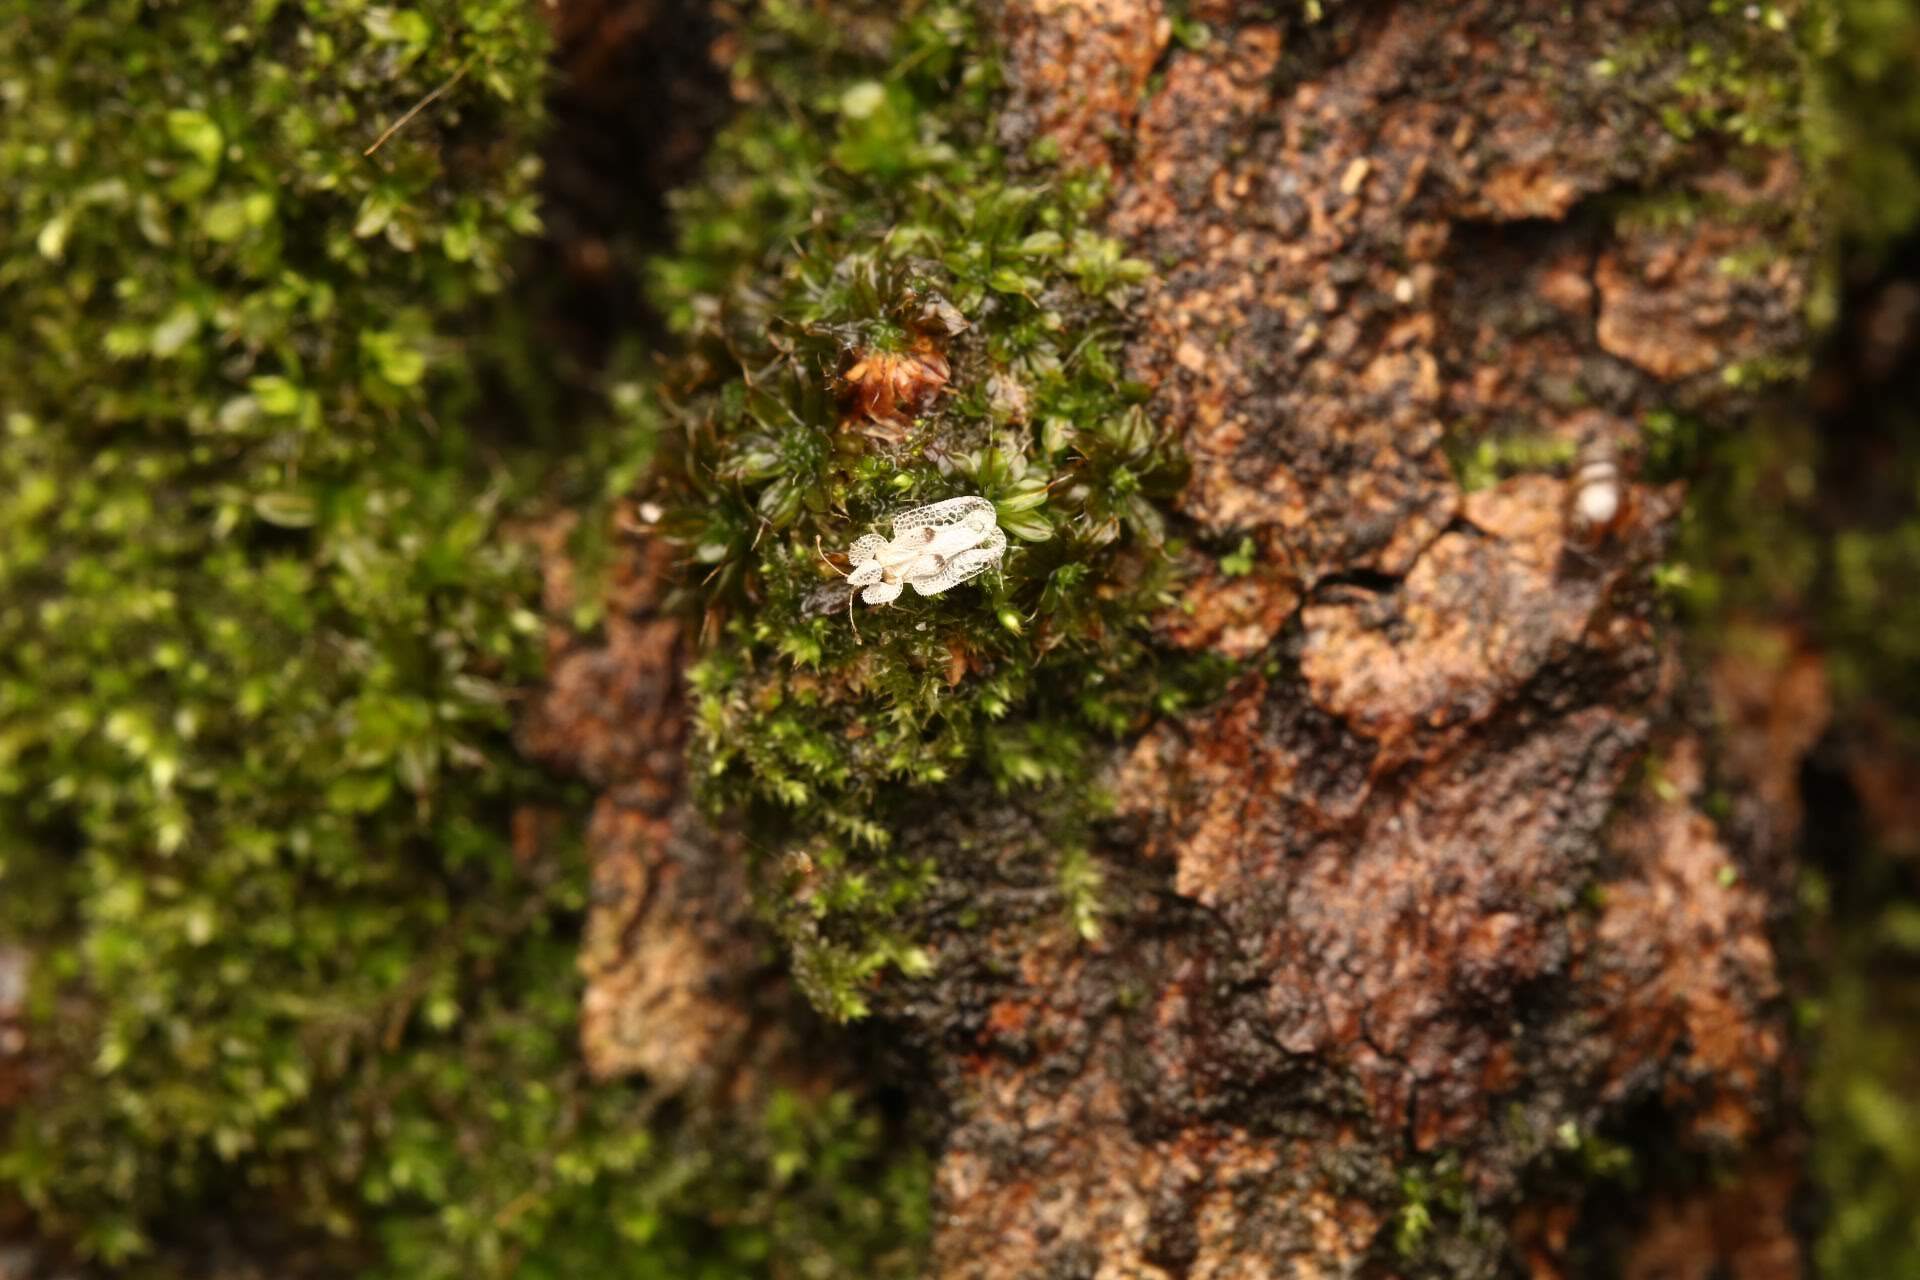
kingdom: Animalia
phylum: Arthropoda
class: Insecta
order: Hemiptera
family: Tingidae
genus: Corythucha
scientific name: Corythucha ciliata
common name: Sycamore lace bug
